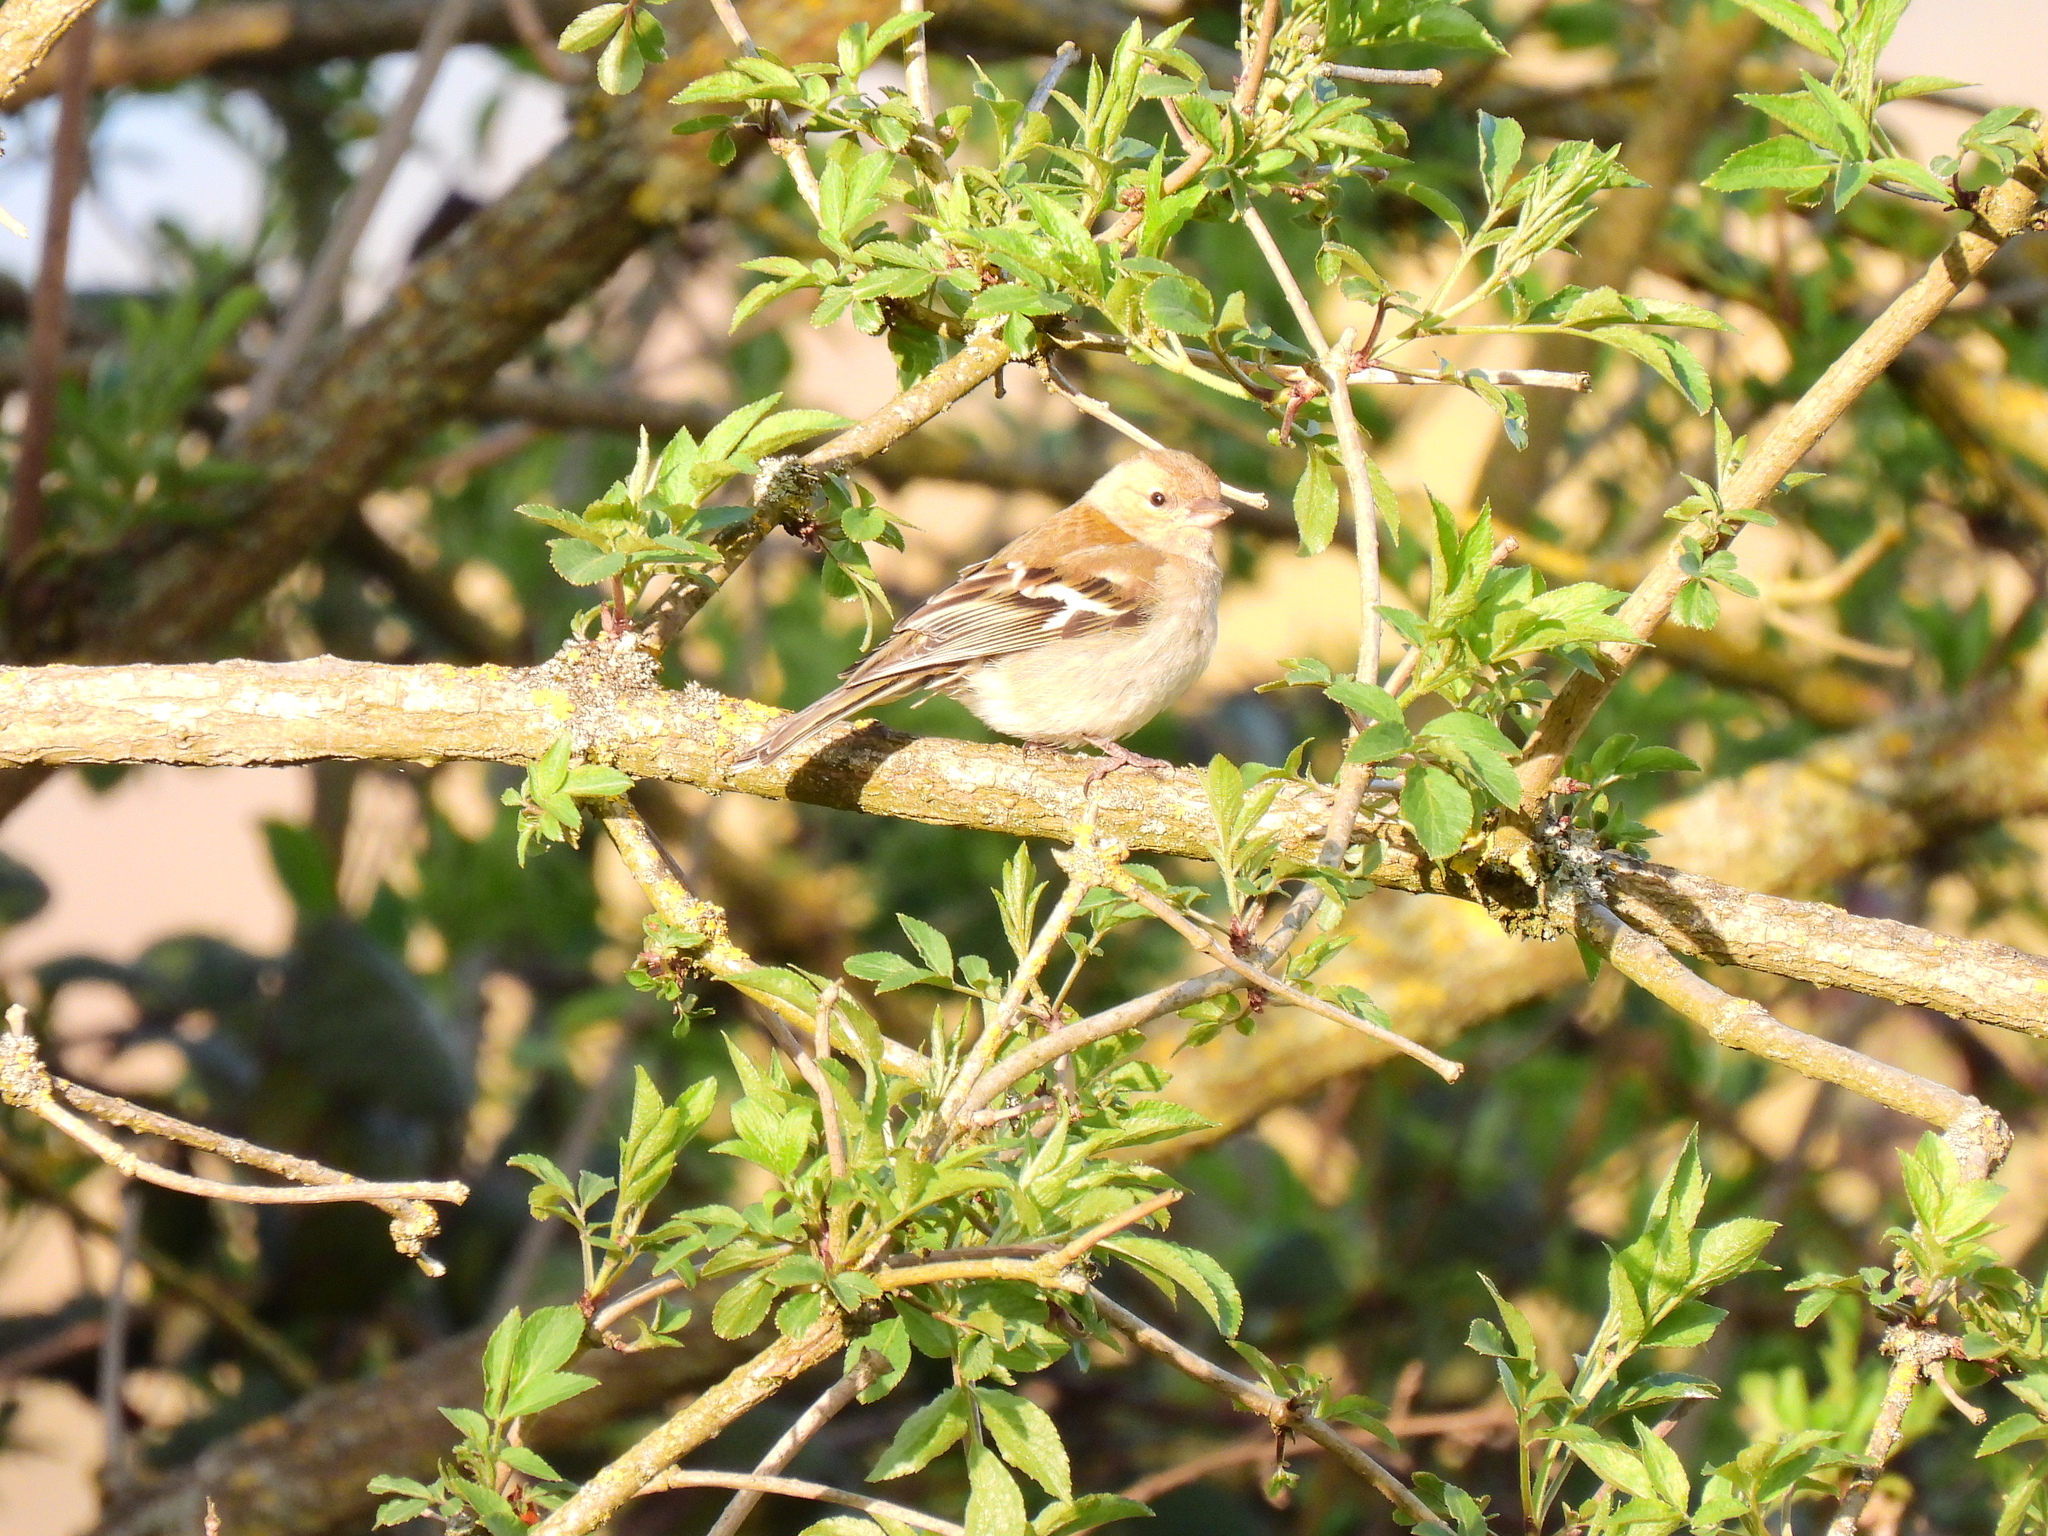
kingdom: Animalia
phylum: Chordata
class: Aves
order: Passeriformes
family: Fringillidae
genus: Fringilla
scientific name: Fringilla coelebs
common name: Common chaffinch
